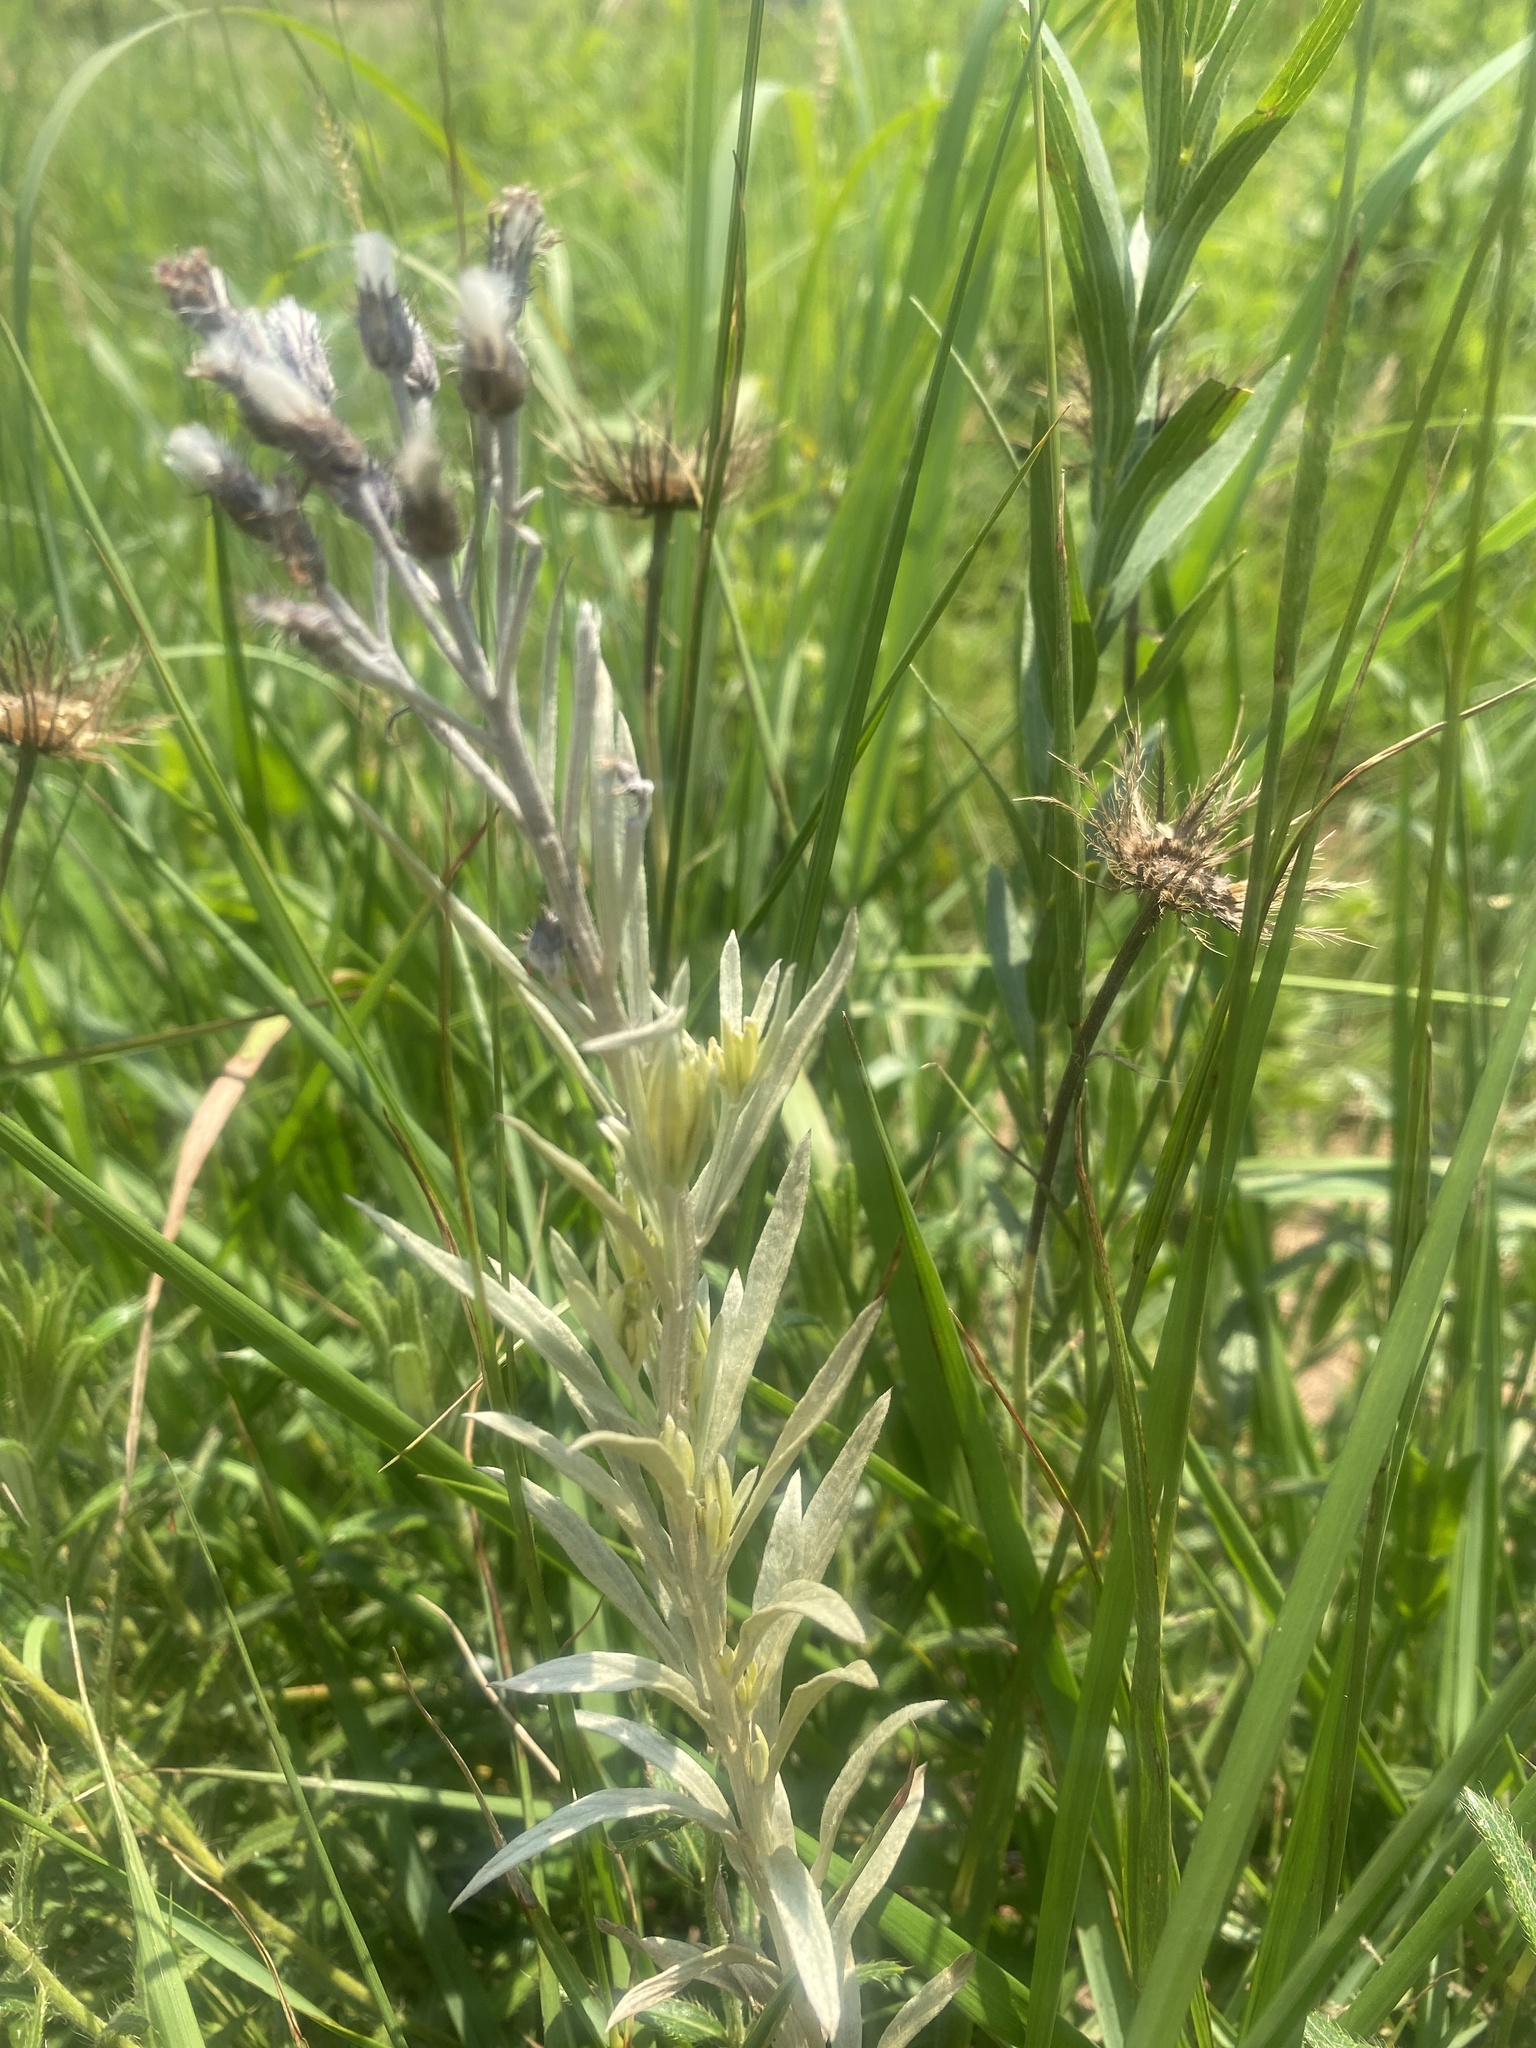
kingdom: Plantae
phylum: Tracheophyta
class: Magnoliopsida
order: Asterales
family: Asteraceae
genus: Hilliardiella
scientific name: Hilliardiella aristata
